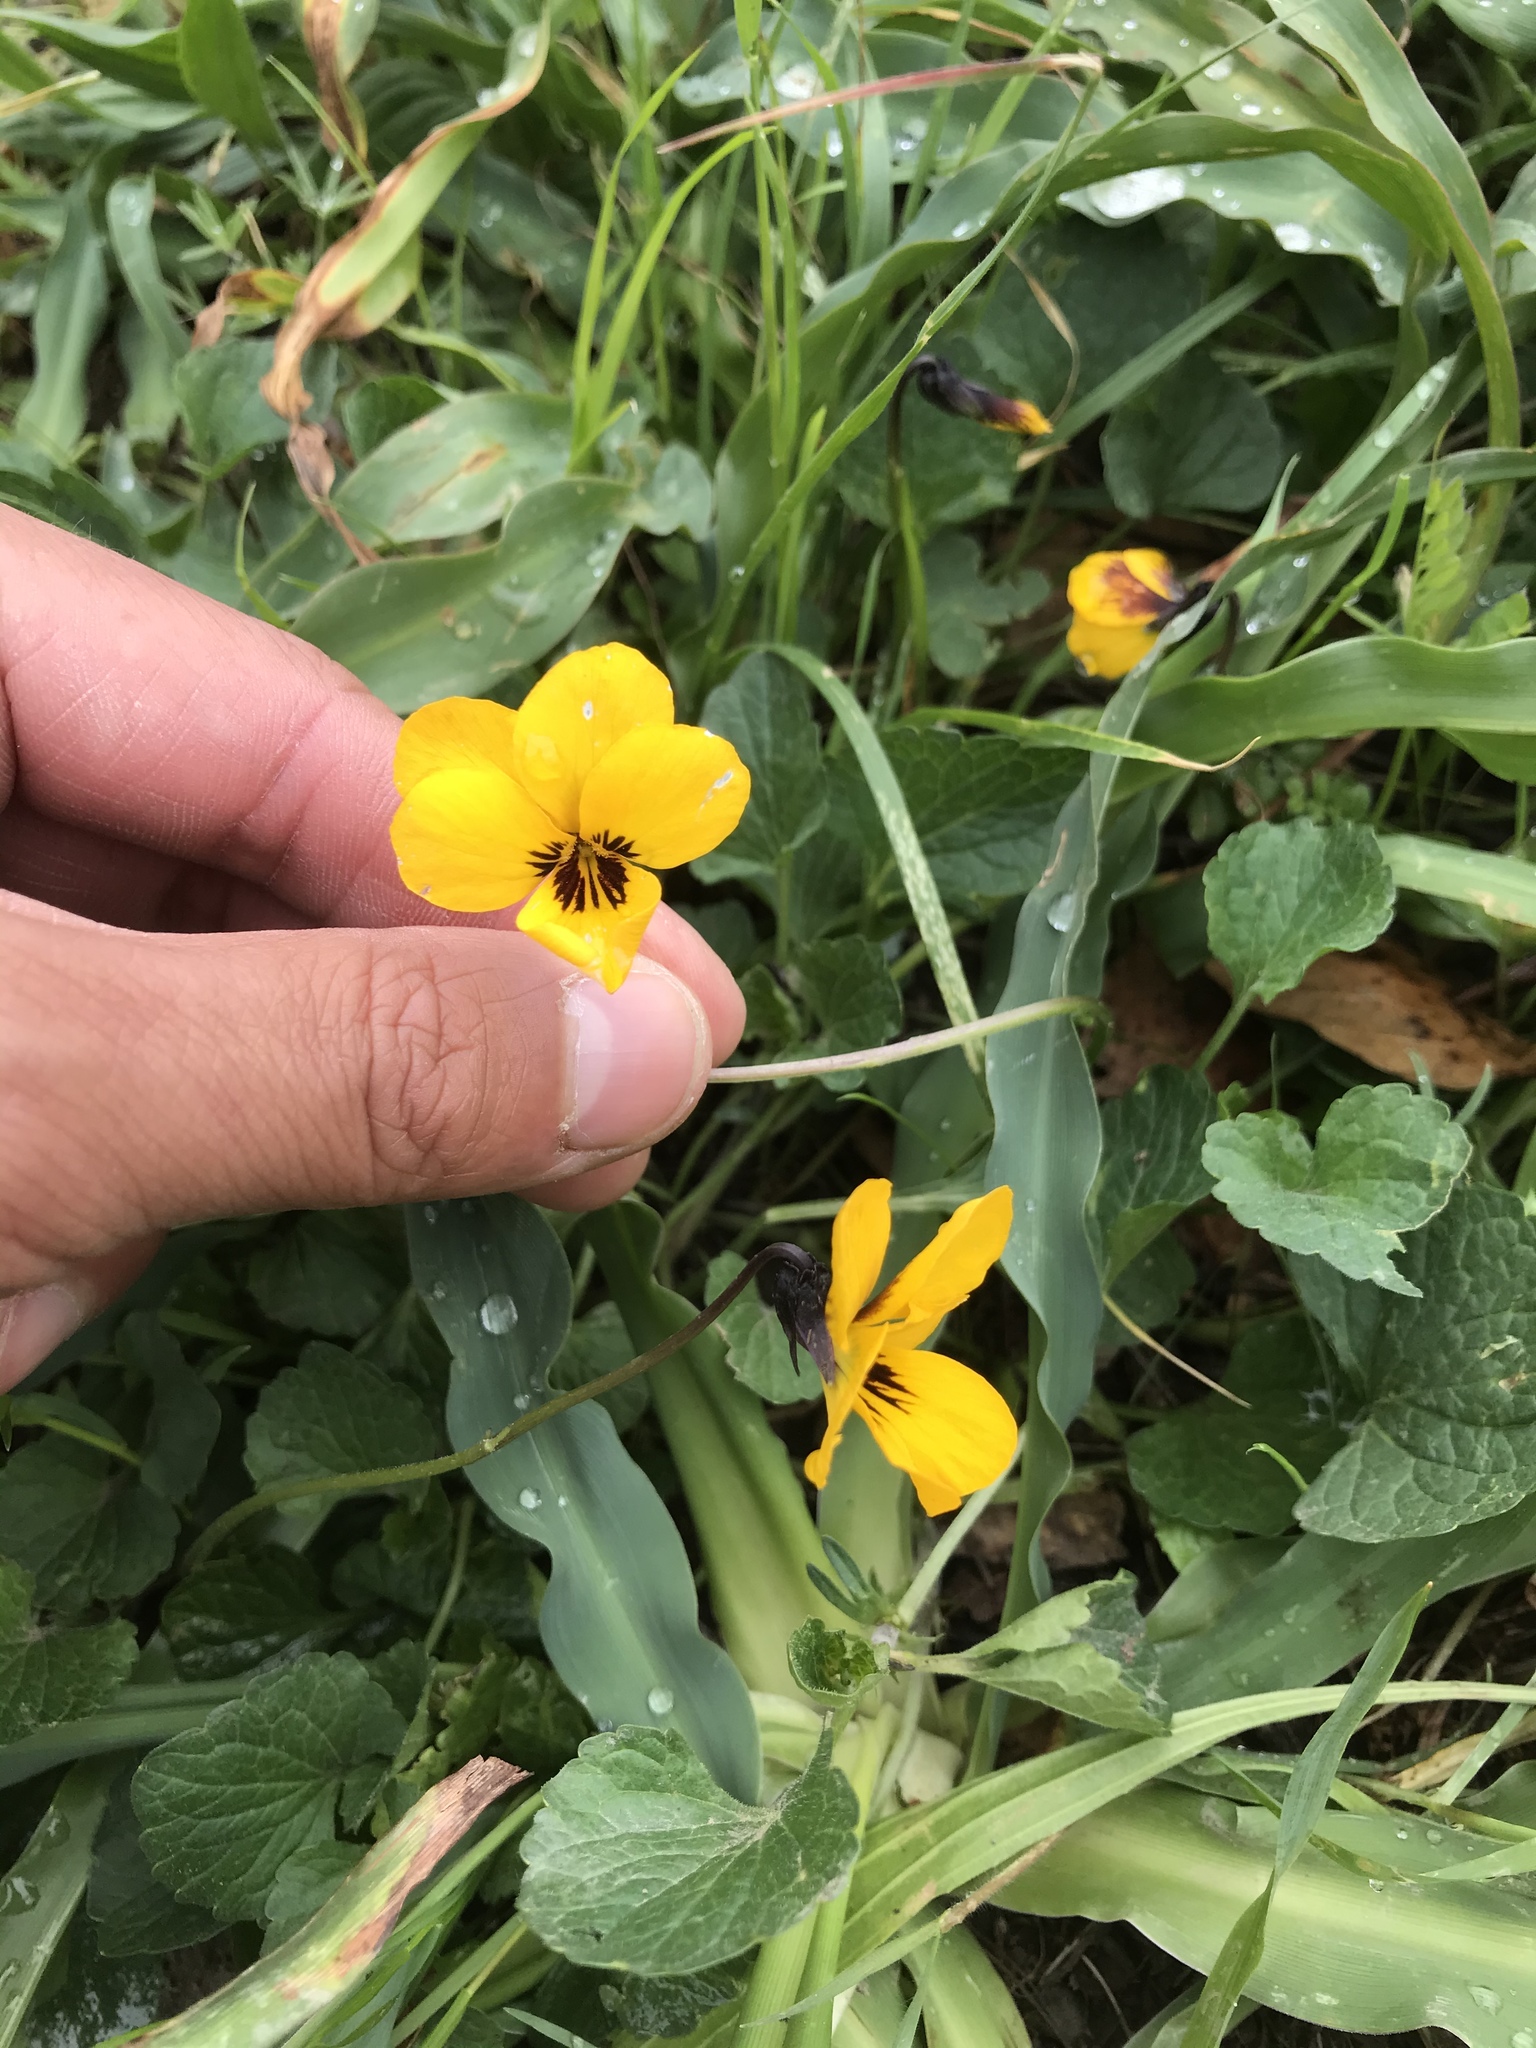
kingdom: Plantae
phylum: Tracheophyta
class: Magnoliopsida
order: Malpighiales
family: Violaceae
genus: Viola
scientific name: Viola pedunculata
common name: California golden violet
